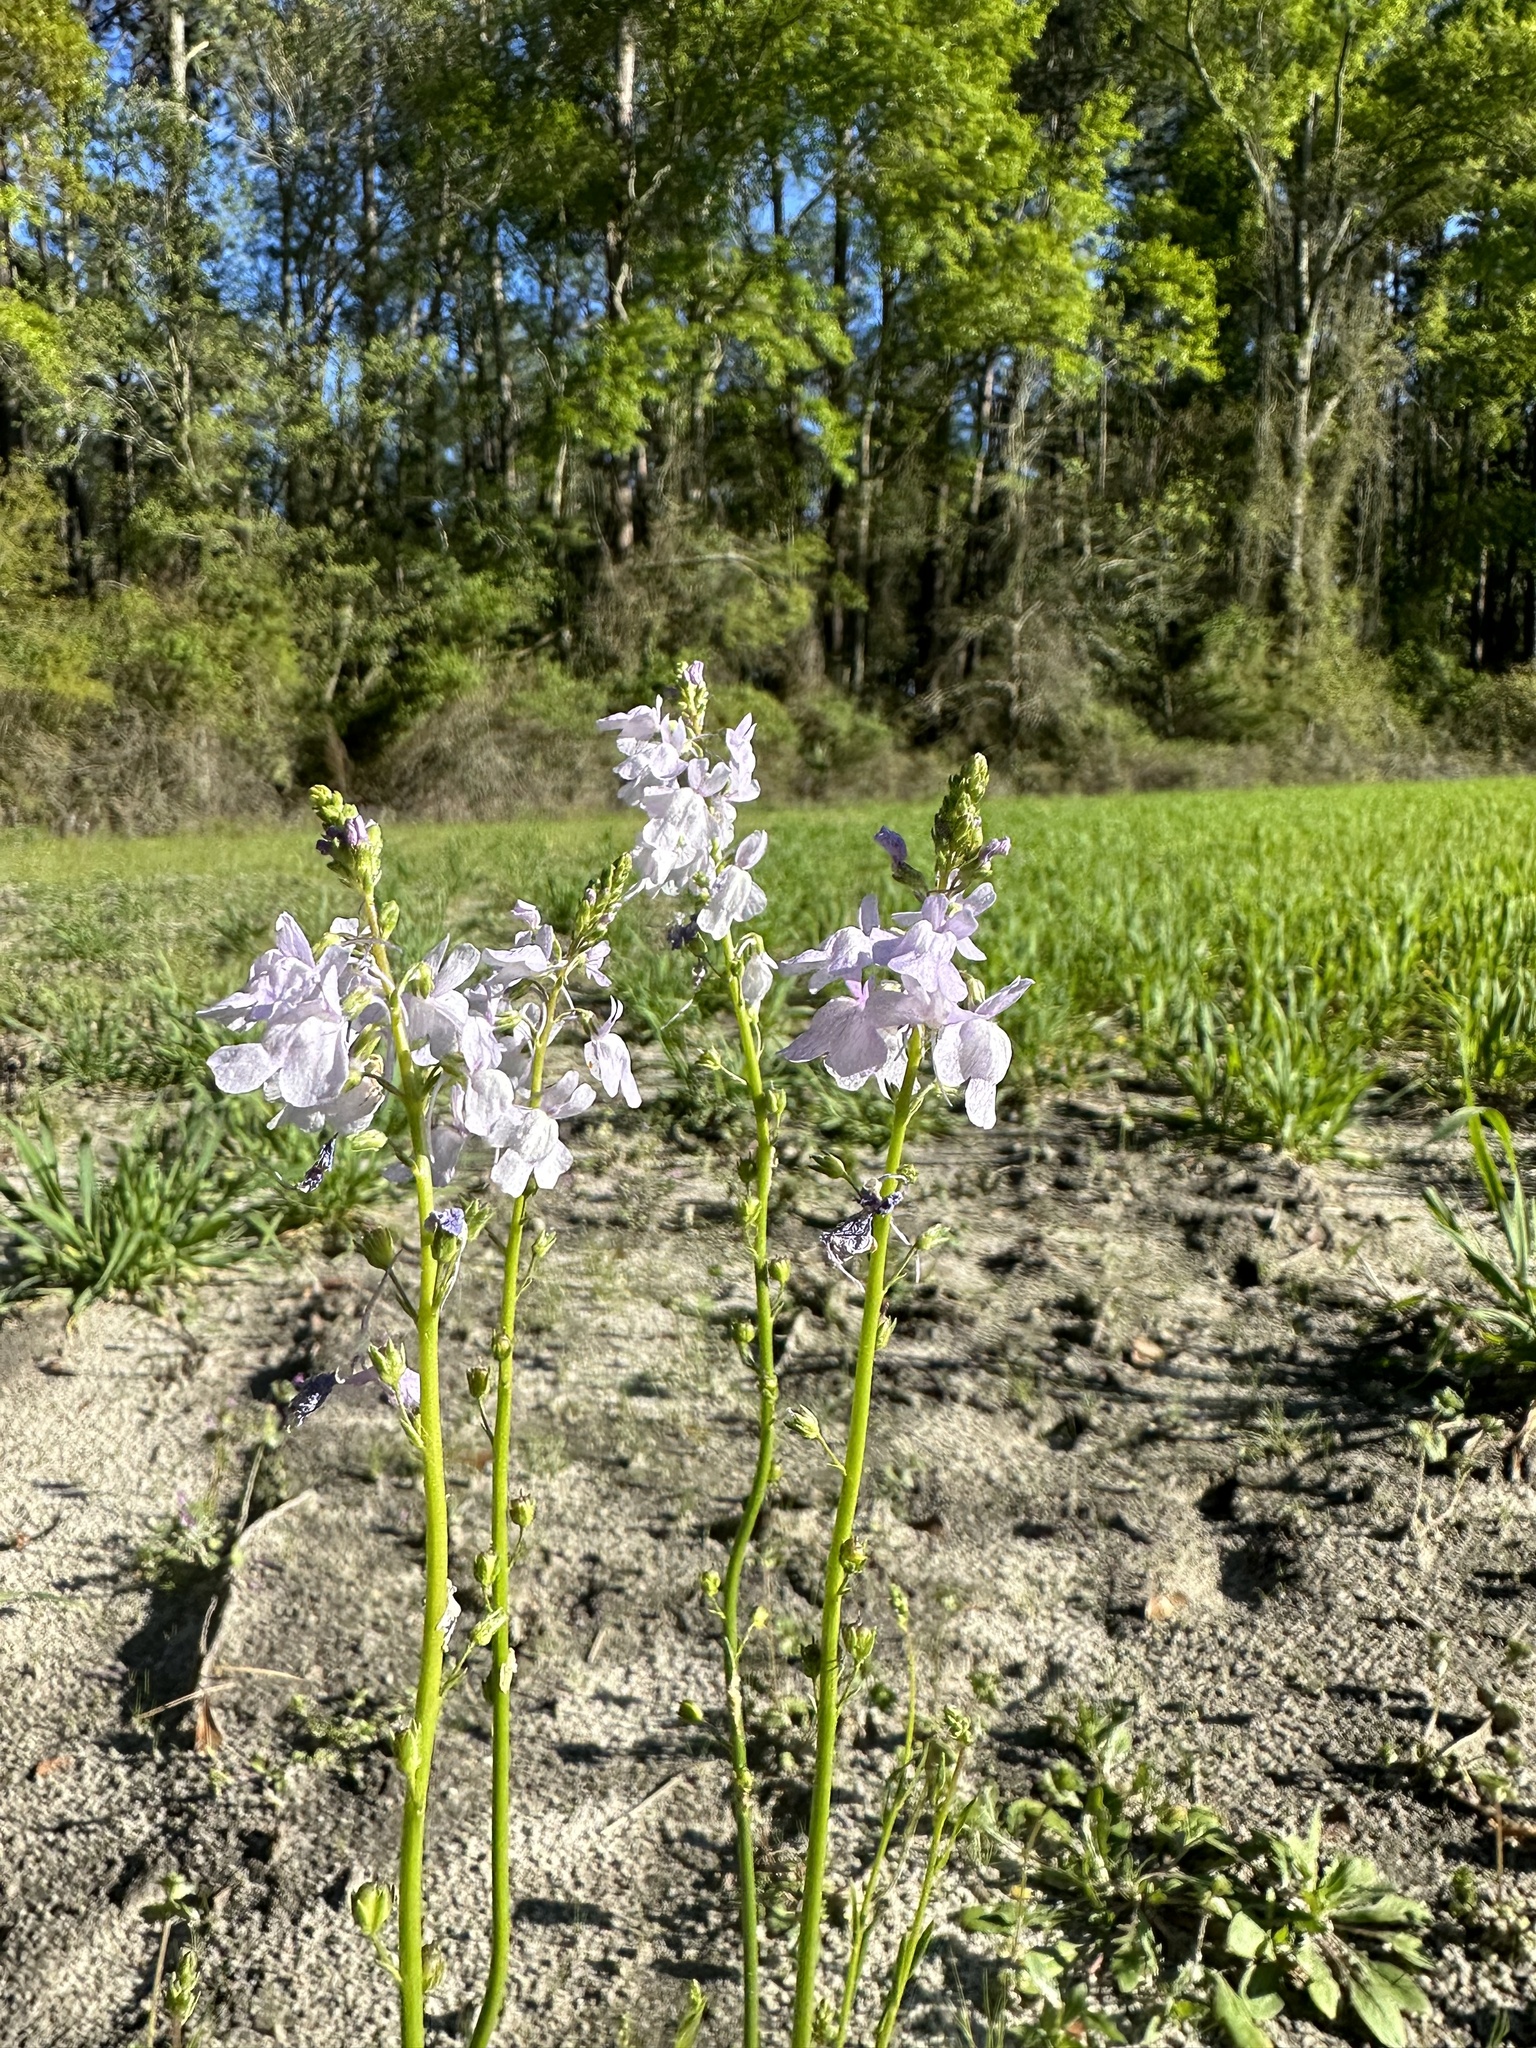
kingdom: Plantae
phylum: Tracheophyta
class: Magnoliopsida
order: Lamiales
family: Plantaginaceae
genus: Nuttallanthus
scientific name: Nuttallanthus texanus
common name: Texas toadflax
